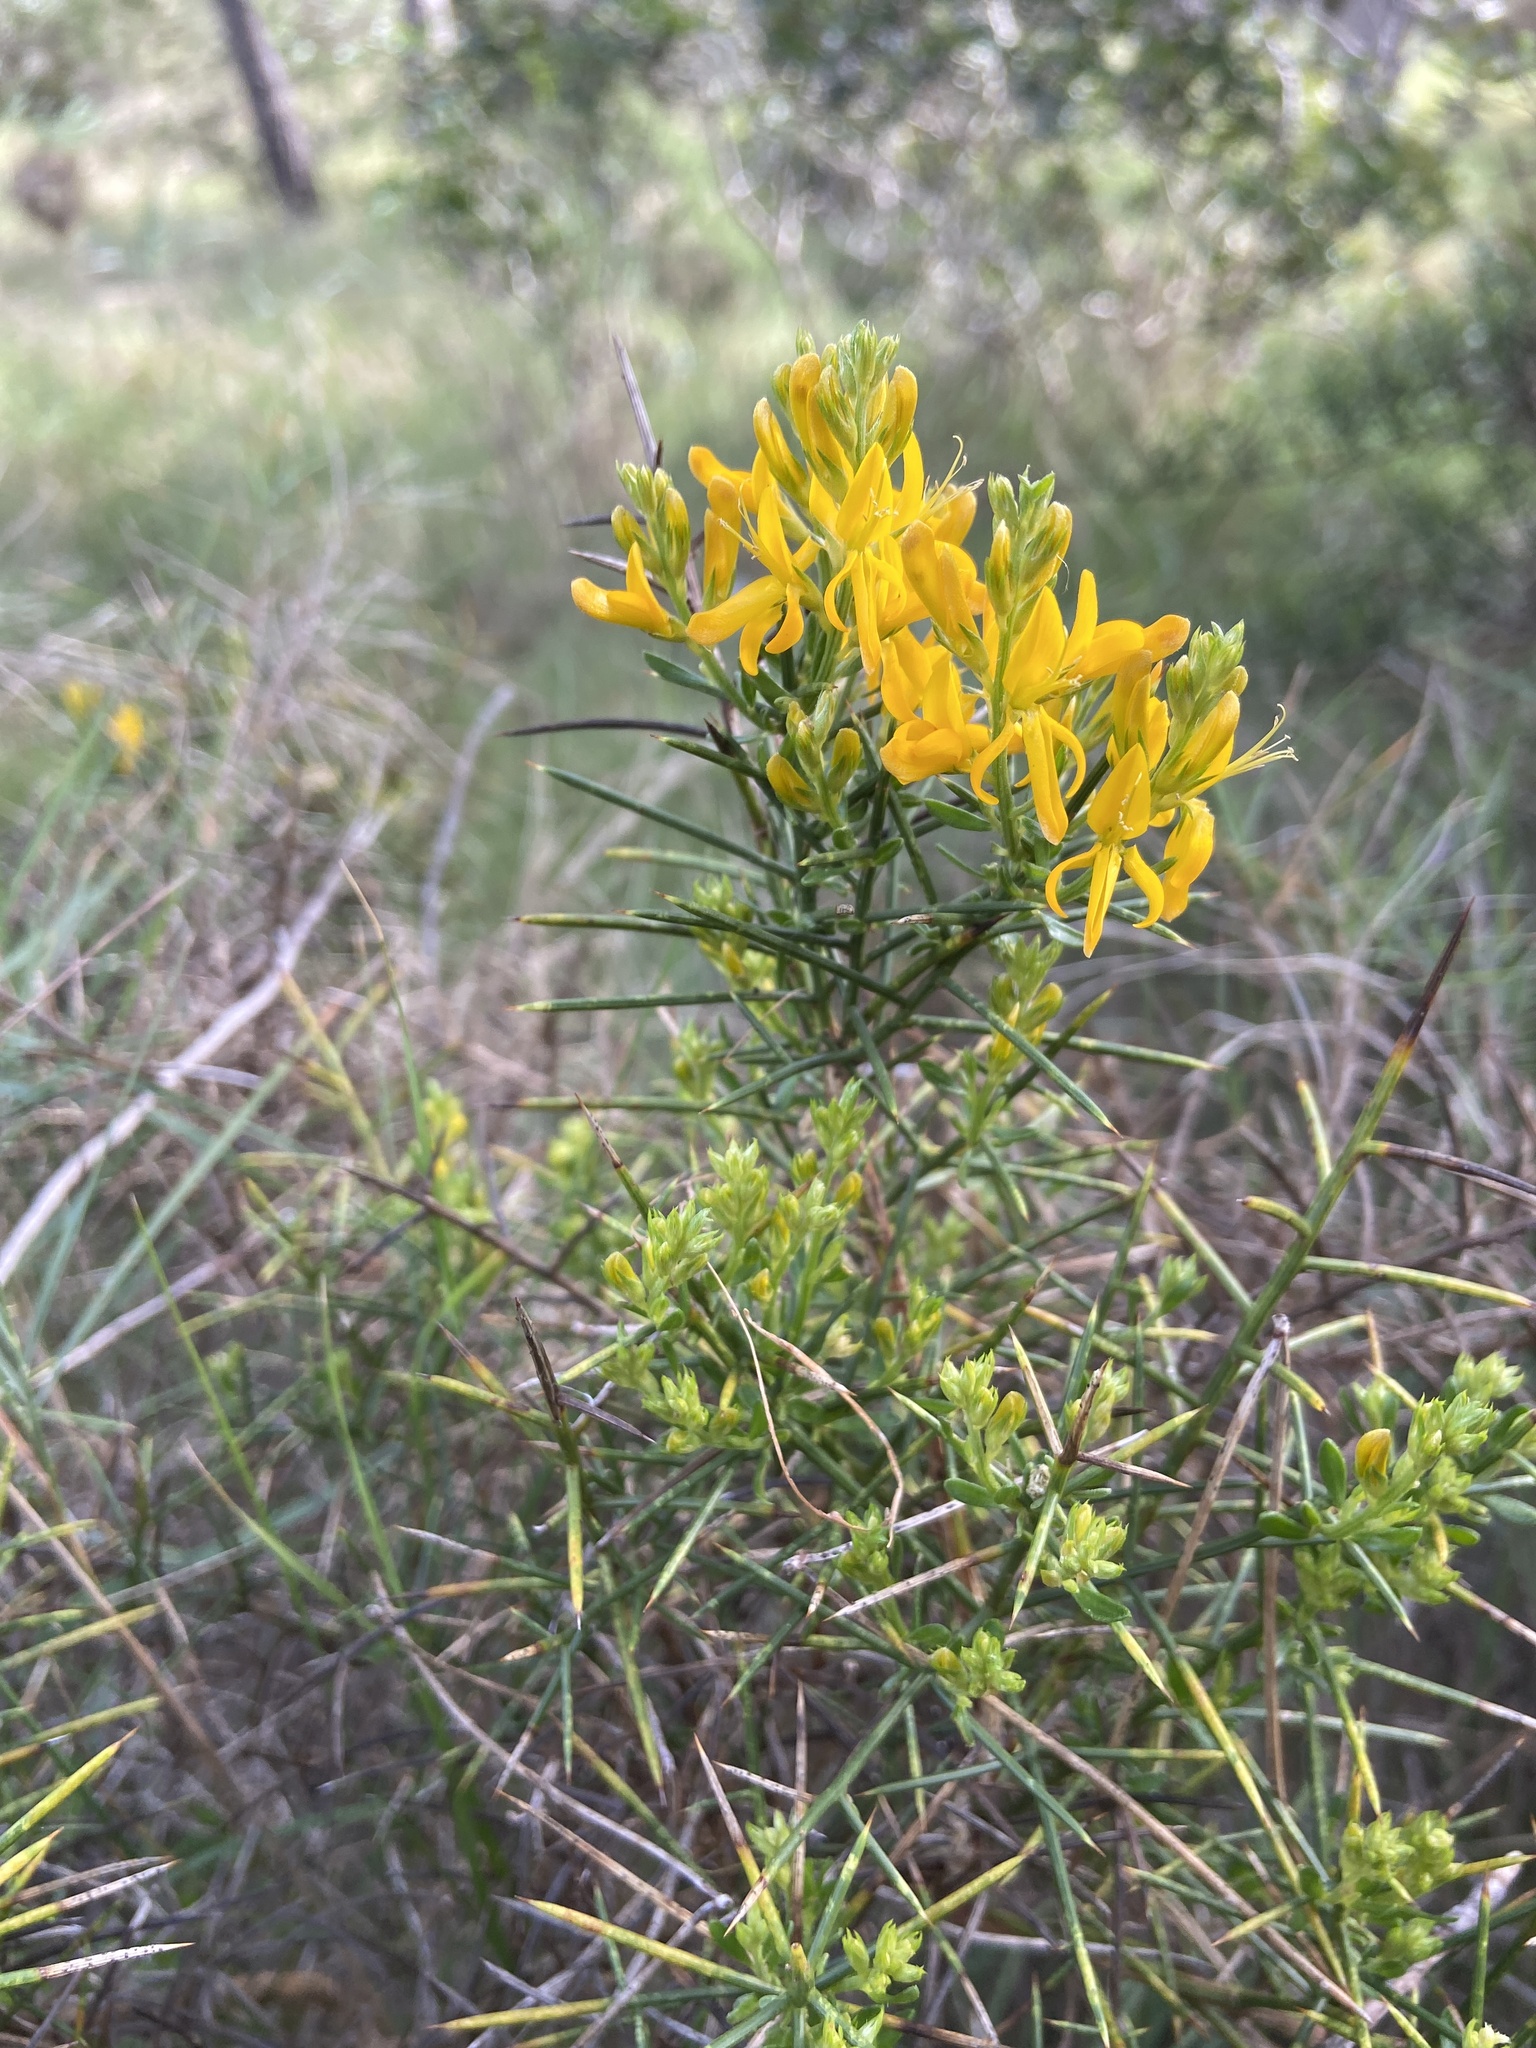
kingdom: Plantae
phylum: Tracheophyta
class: Magnoliopsida
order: Fabales
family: Fabaceae
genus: Genista
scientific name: Genista tricuspidata
